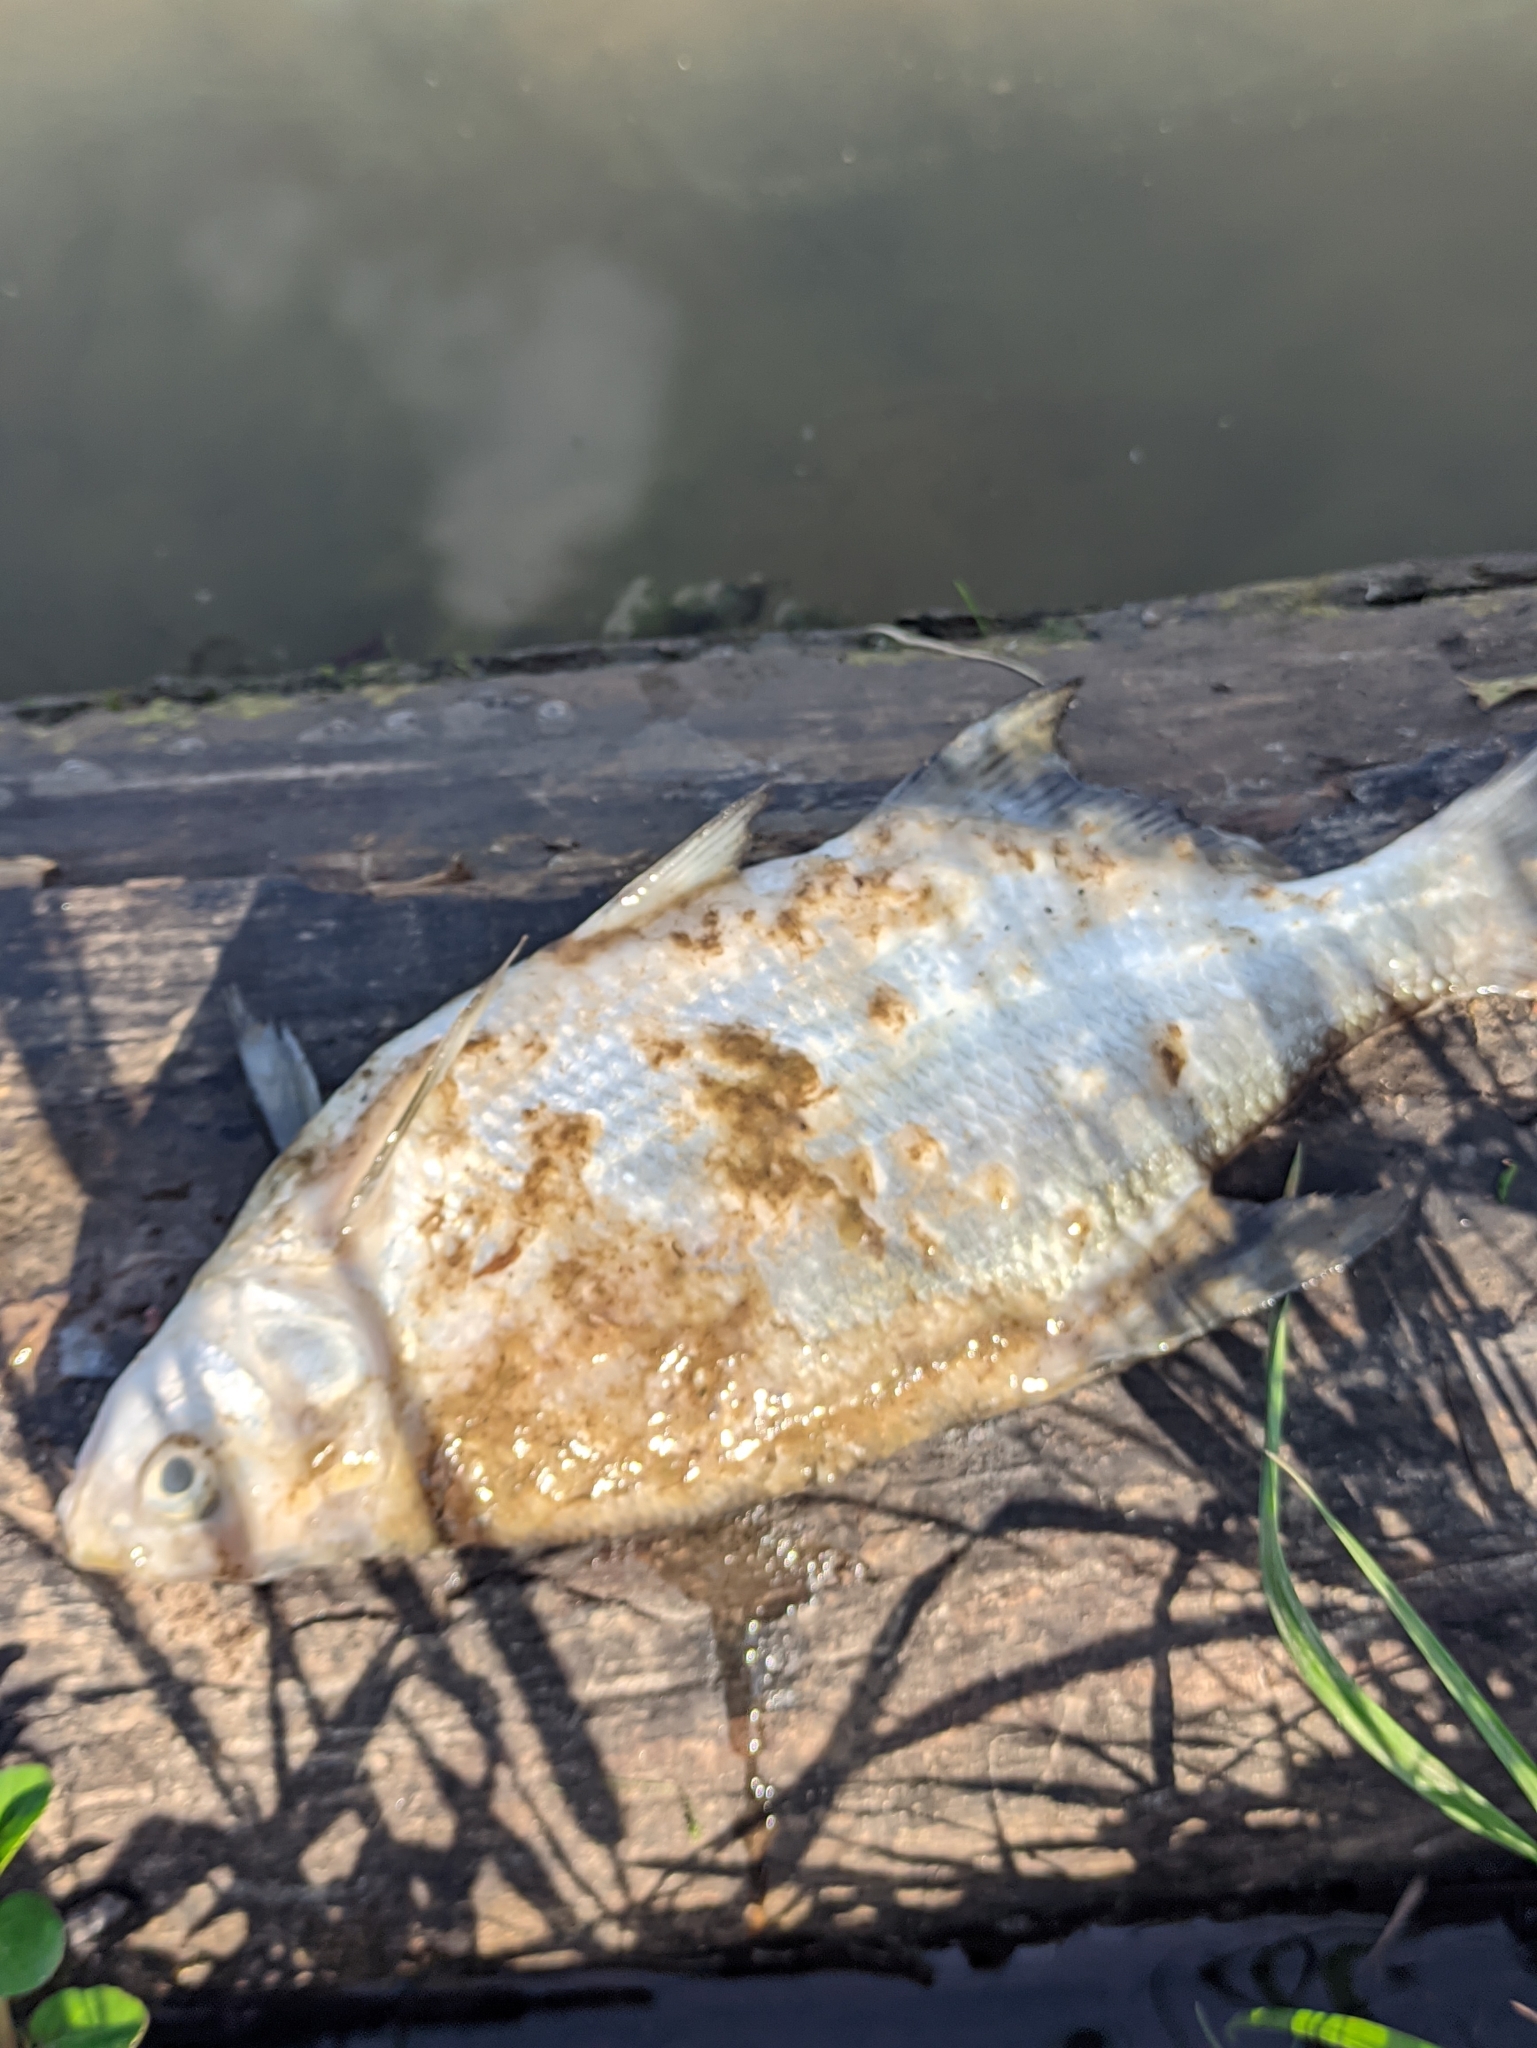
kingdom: Animalia
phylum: Chordata
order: Cypriniformes
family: Cyprinidae
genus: Abramis
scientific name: Abramis brama
